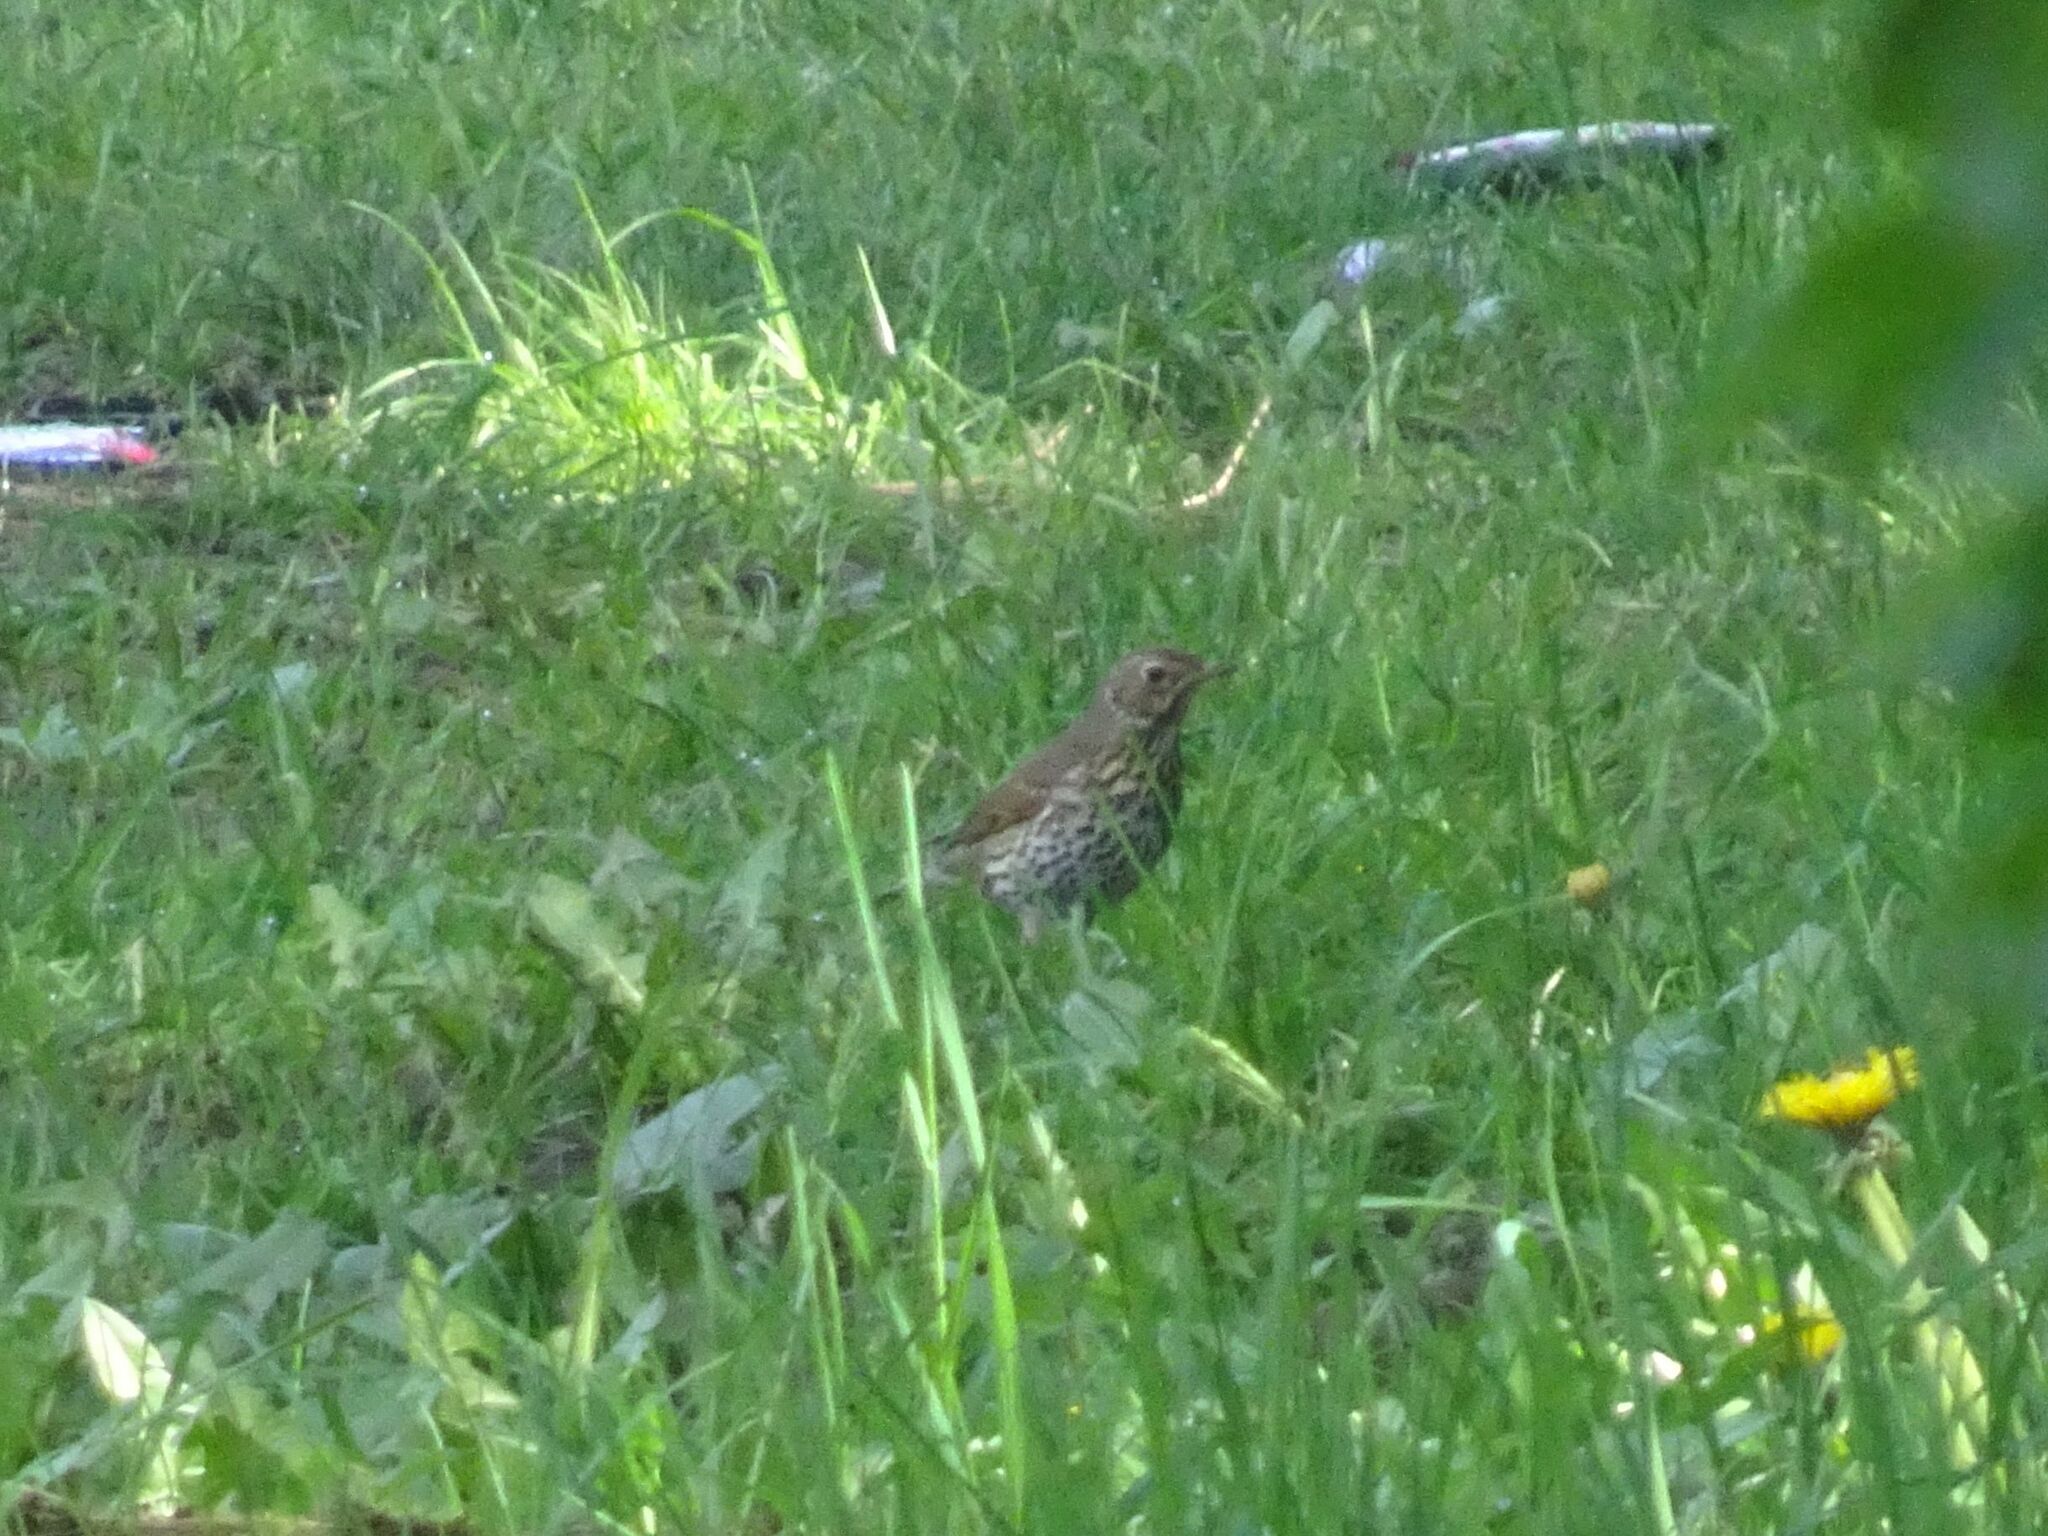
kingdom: Animalia
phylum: Chordata
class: Aves
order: Passeriformes
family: Turdidae
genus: Turdus
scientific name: Turdus philomelos
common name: Song thrush
